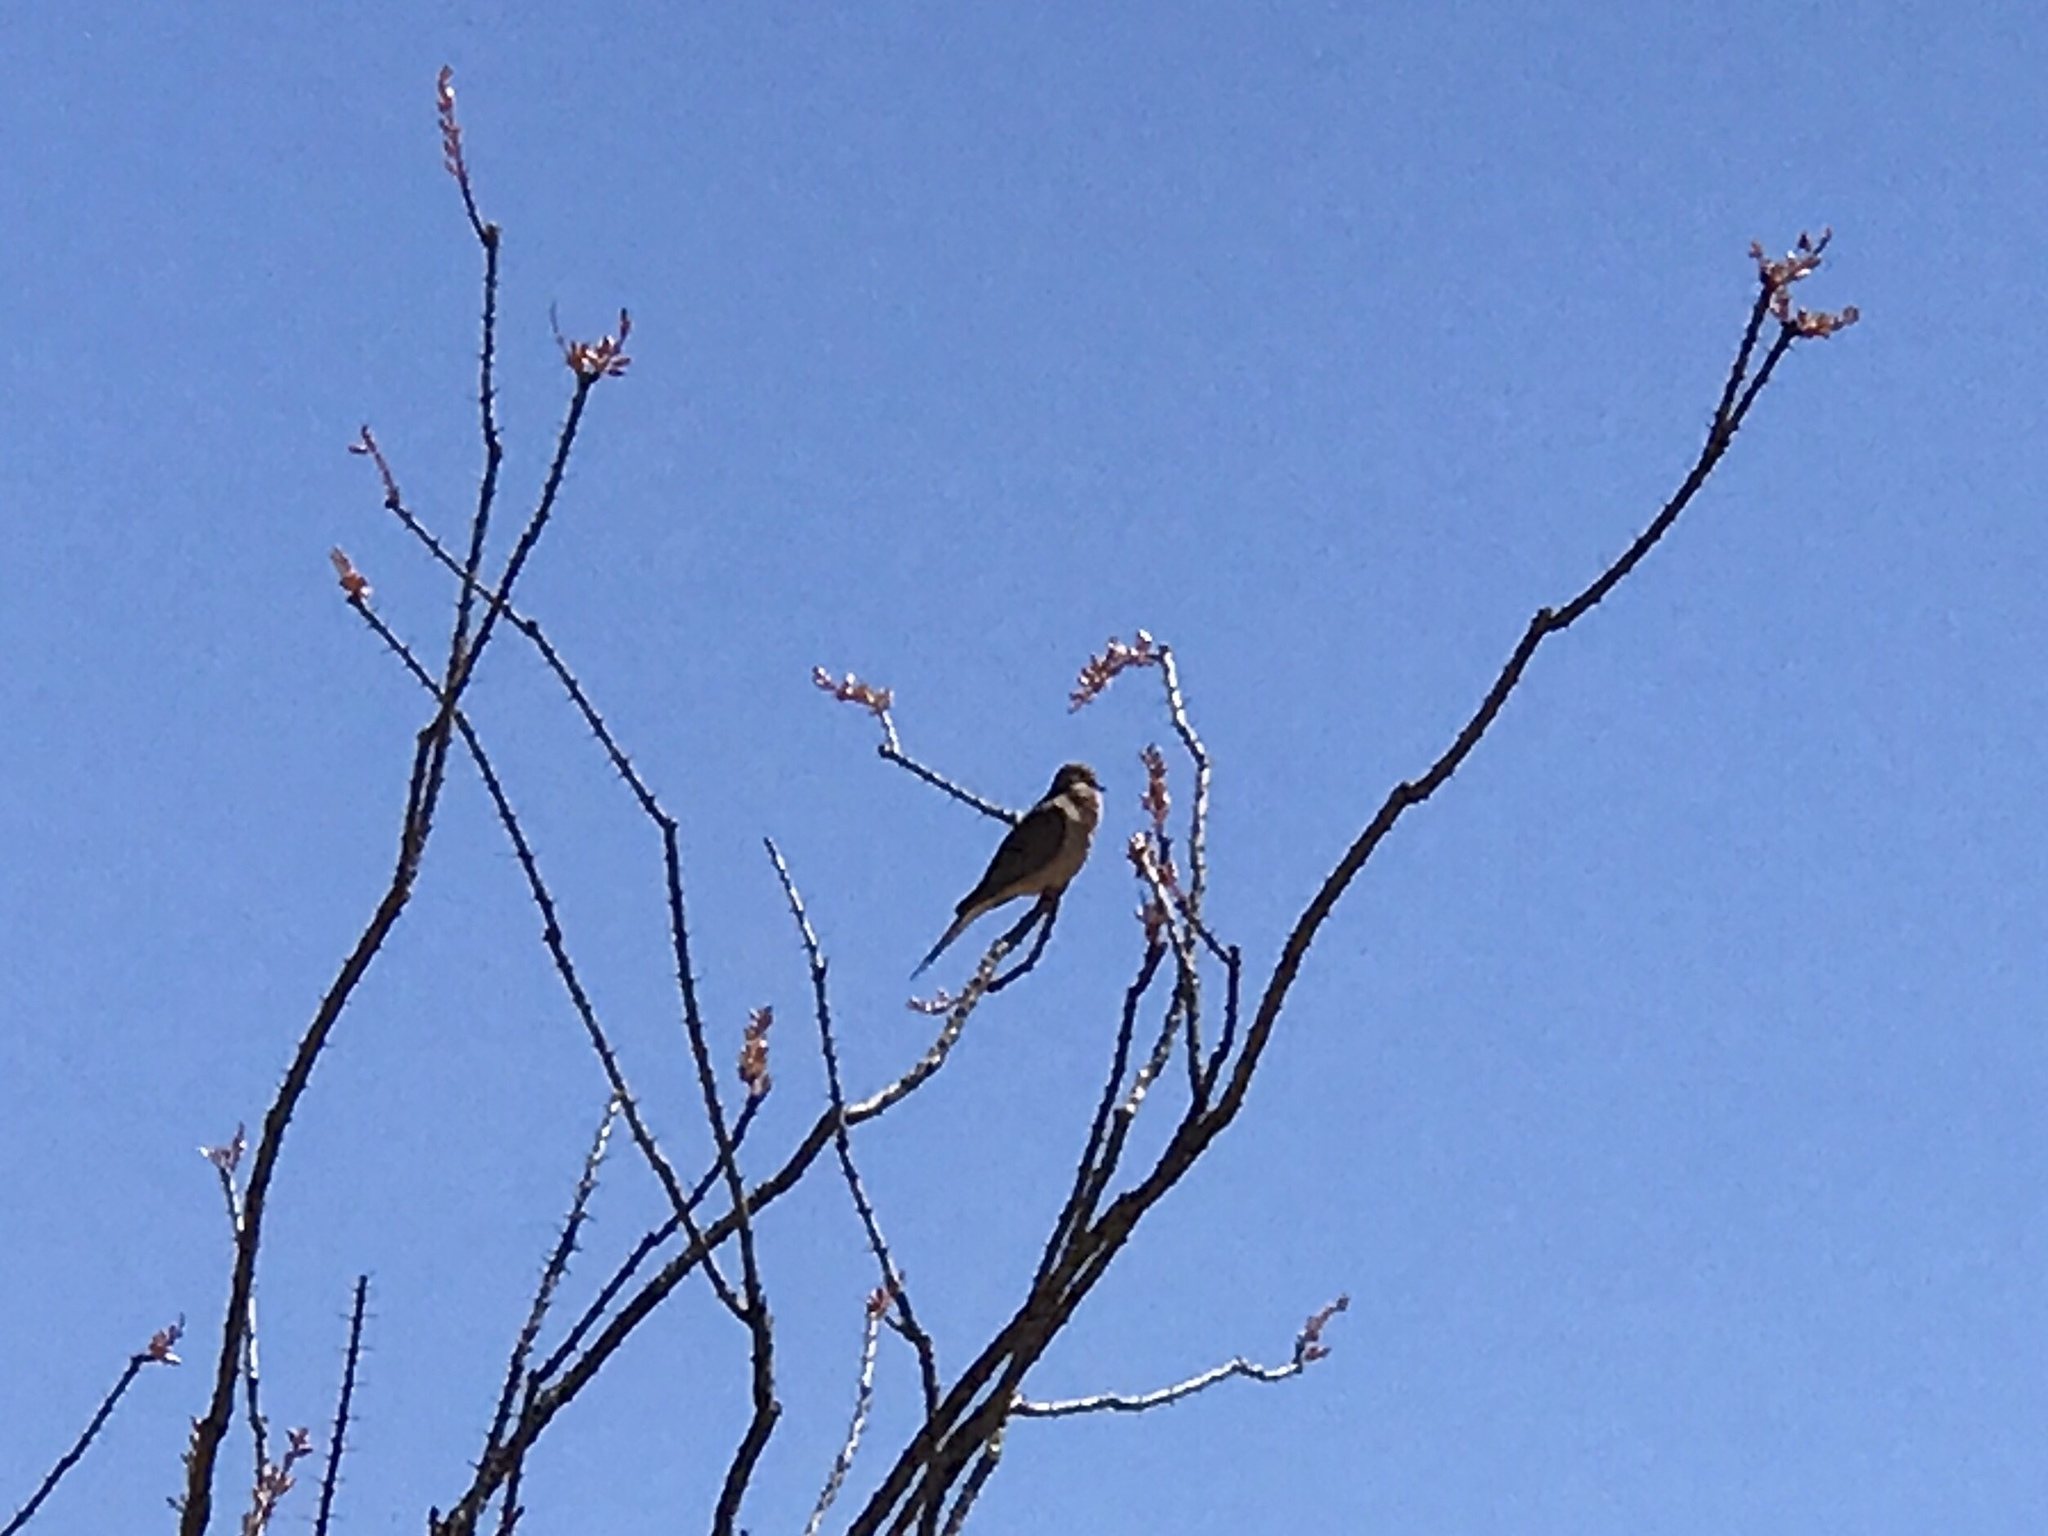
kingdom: Animalia
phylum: Chordata
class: Aves
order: Columbiformes
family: Columbidae
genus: Zenaida
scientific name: Zenaida macroura
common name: Mourning dove
